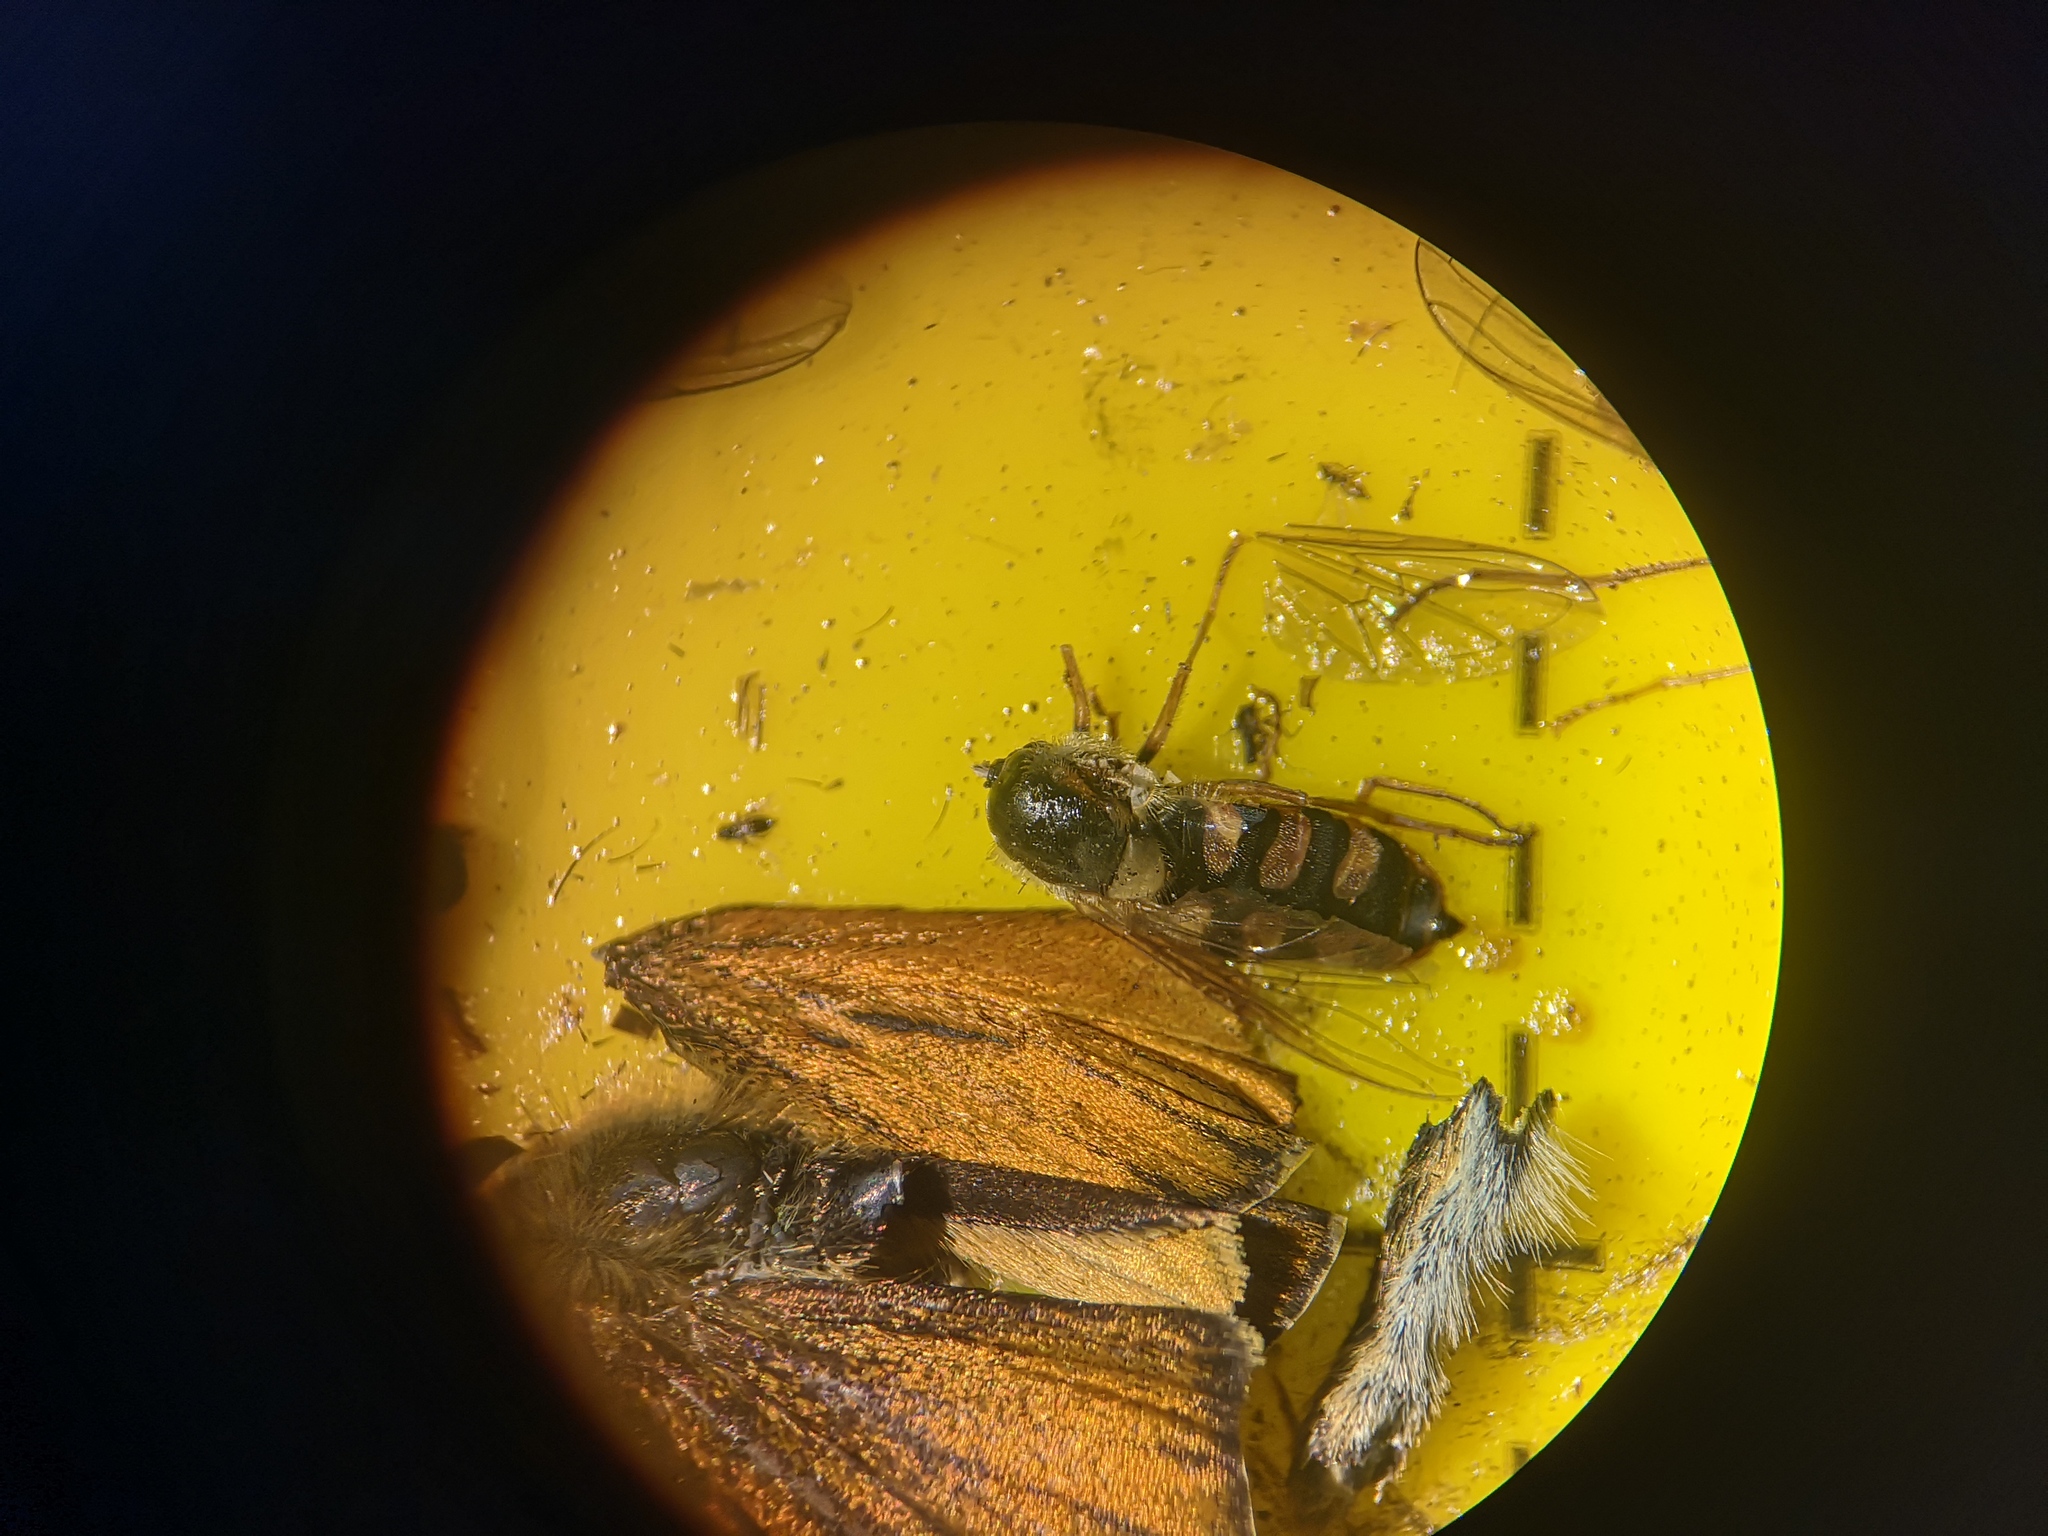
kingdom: Animalia
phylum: Arthropoda
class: Insecta
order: Diptera
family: Syrphidae
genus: Eupeodes
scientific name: Eupeodes corollae
